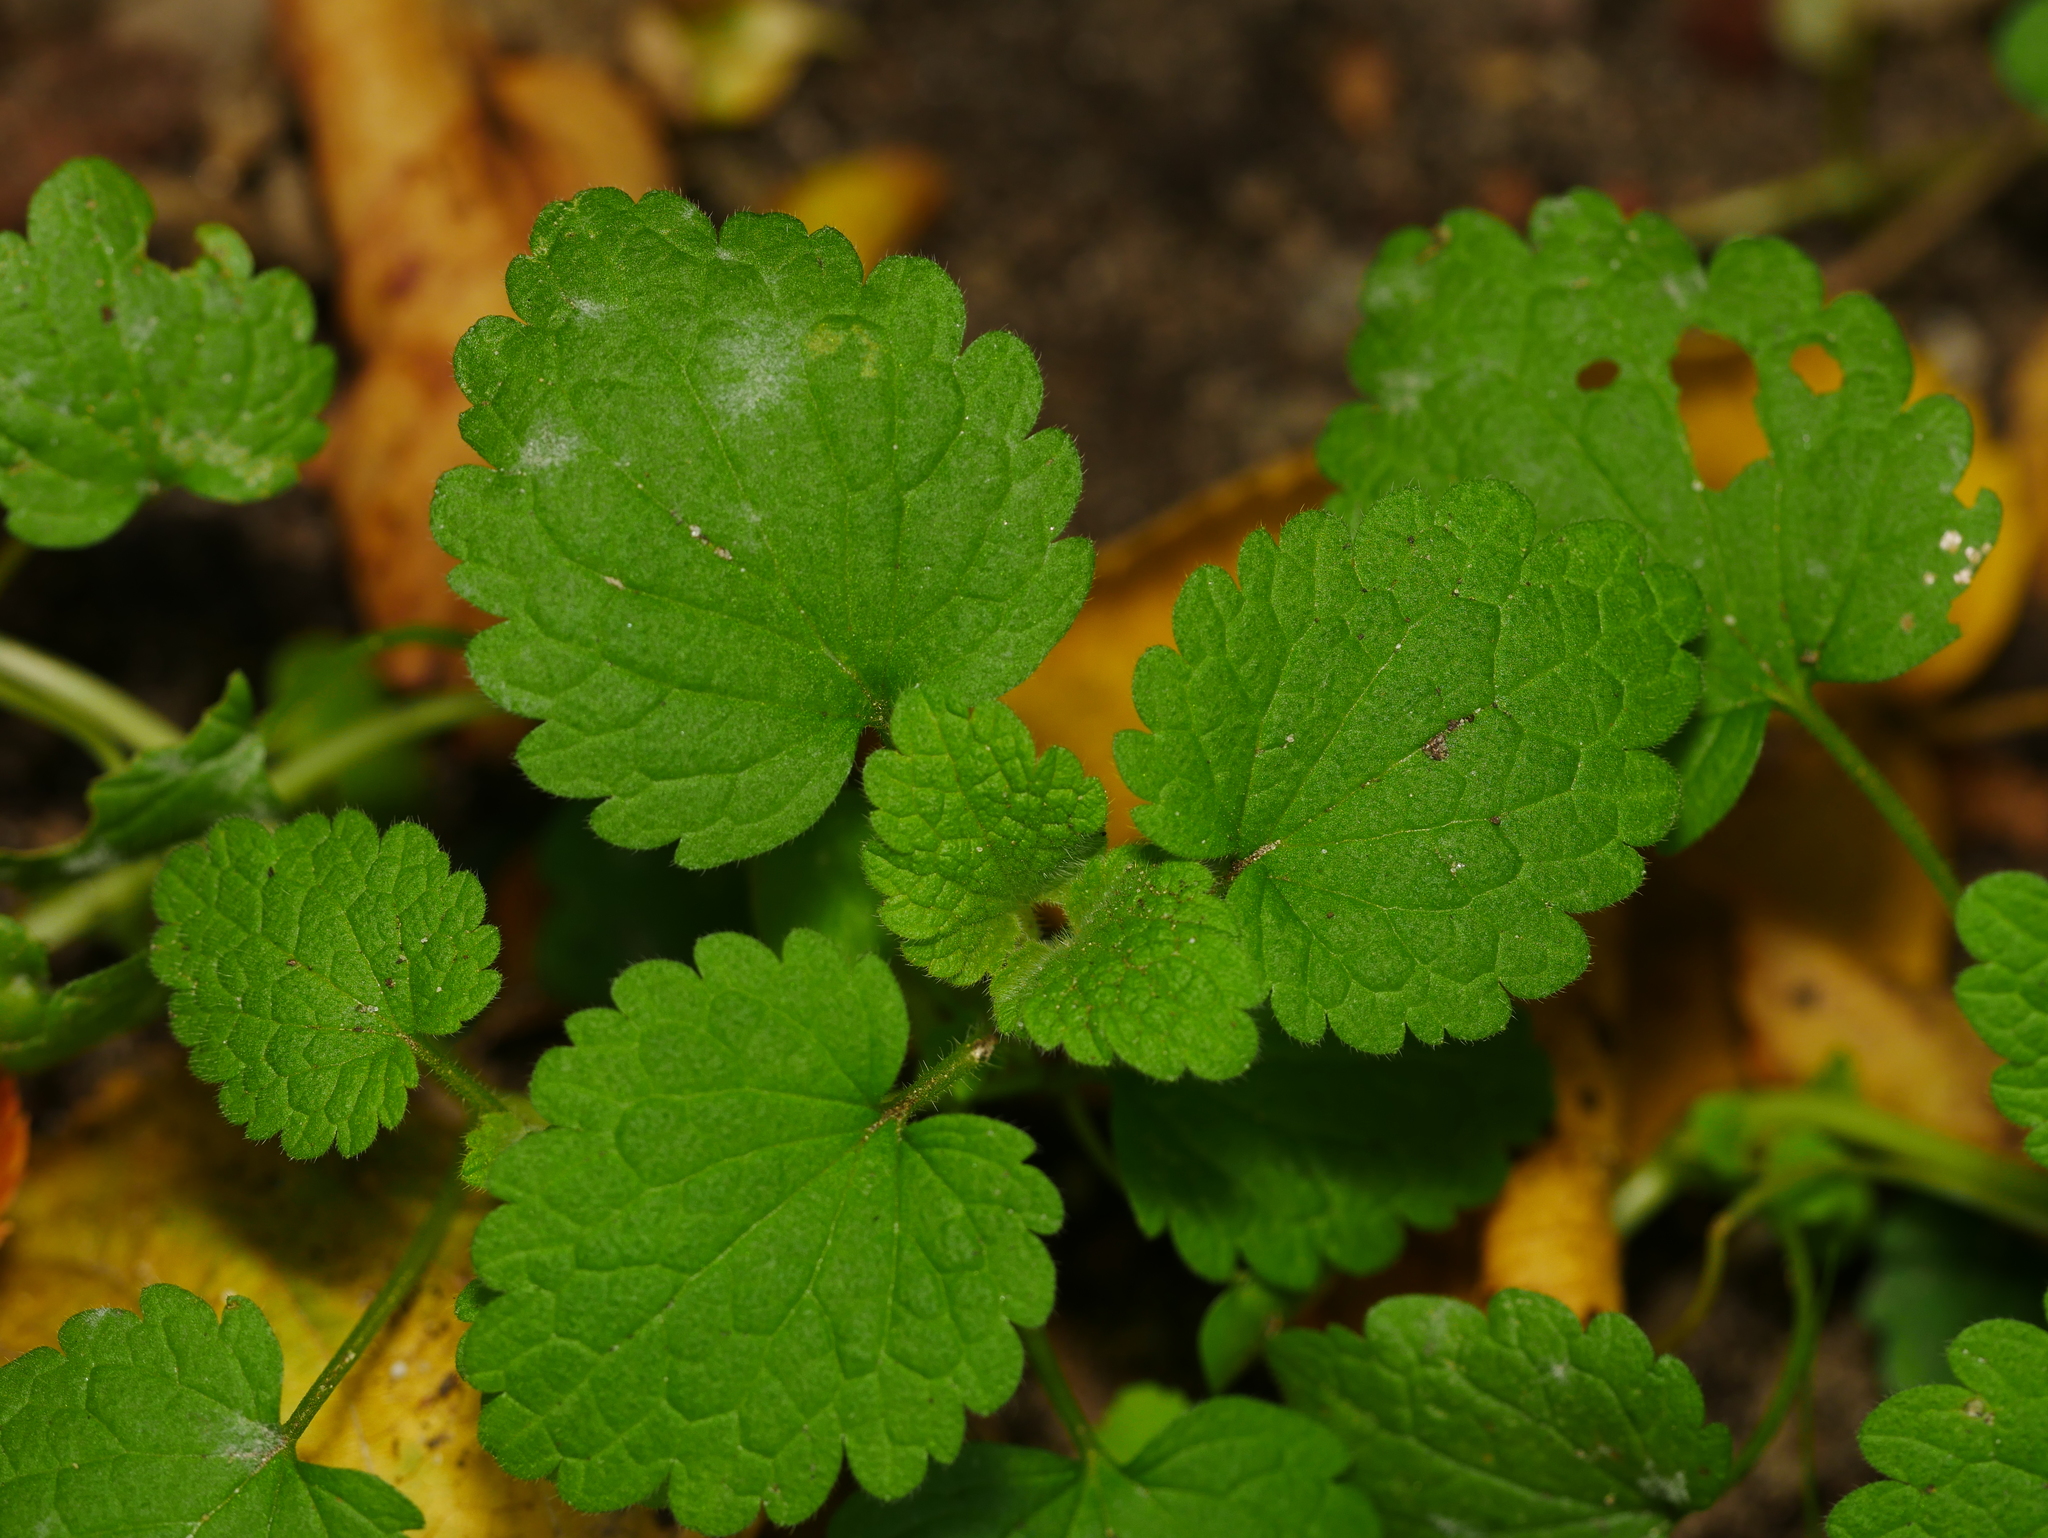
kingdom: Plantae
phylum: Tracheophyta
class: Magnoliopsida
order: Lamiales
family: Lamiaceae
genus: Lamium
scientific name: Lamium purpureum
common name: Red dead-nettle
